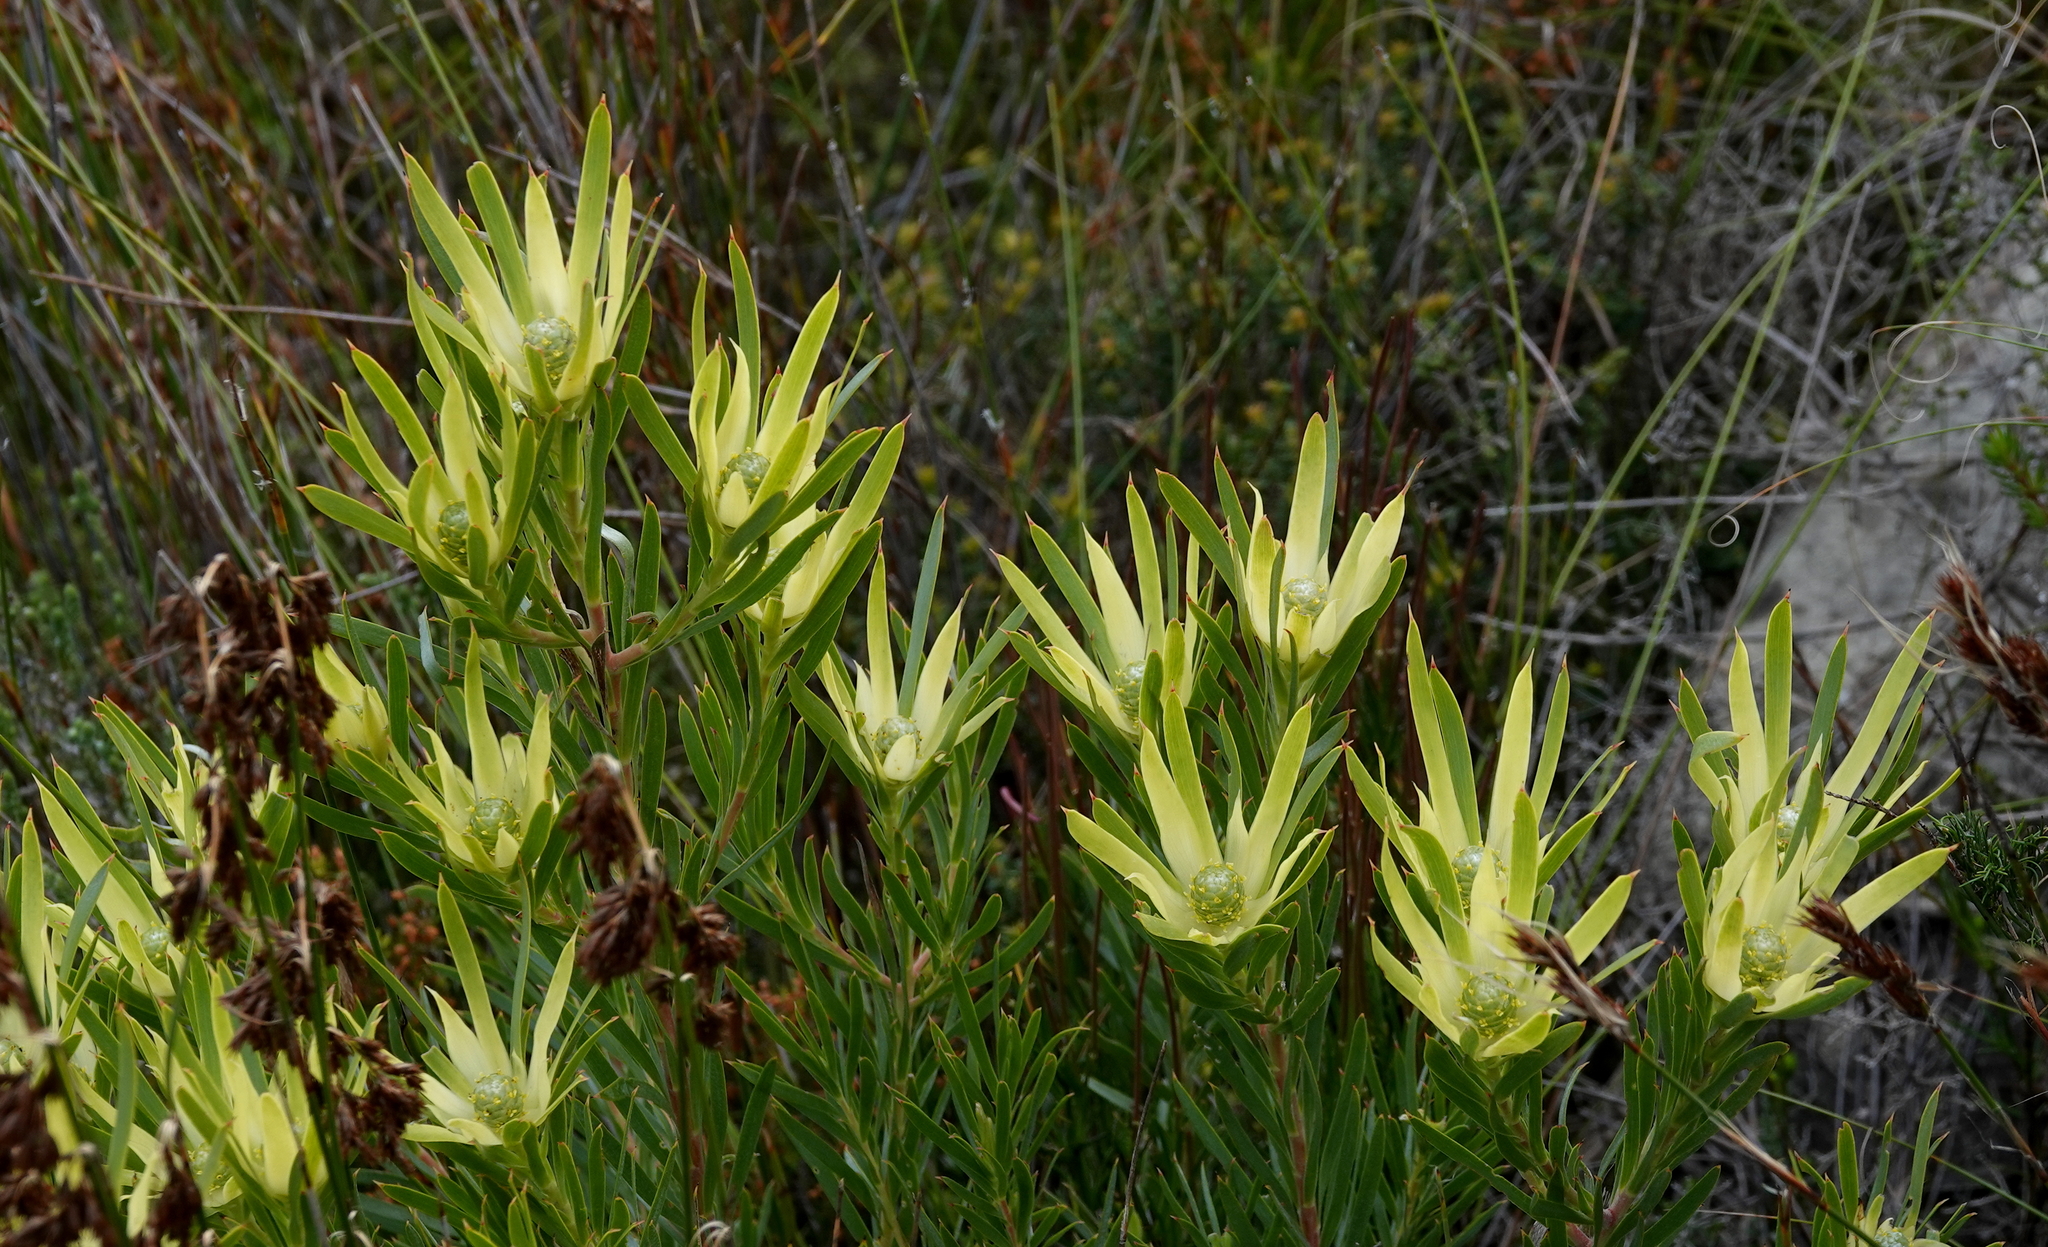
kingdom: Plantae
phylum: Tracheophyta
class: Magnoliopsida
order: Proteales
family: Proteaceae
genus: Leucadendron
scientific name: Leucadendron xanthoconus
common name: Sickle-leaf conebush
